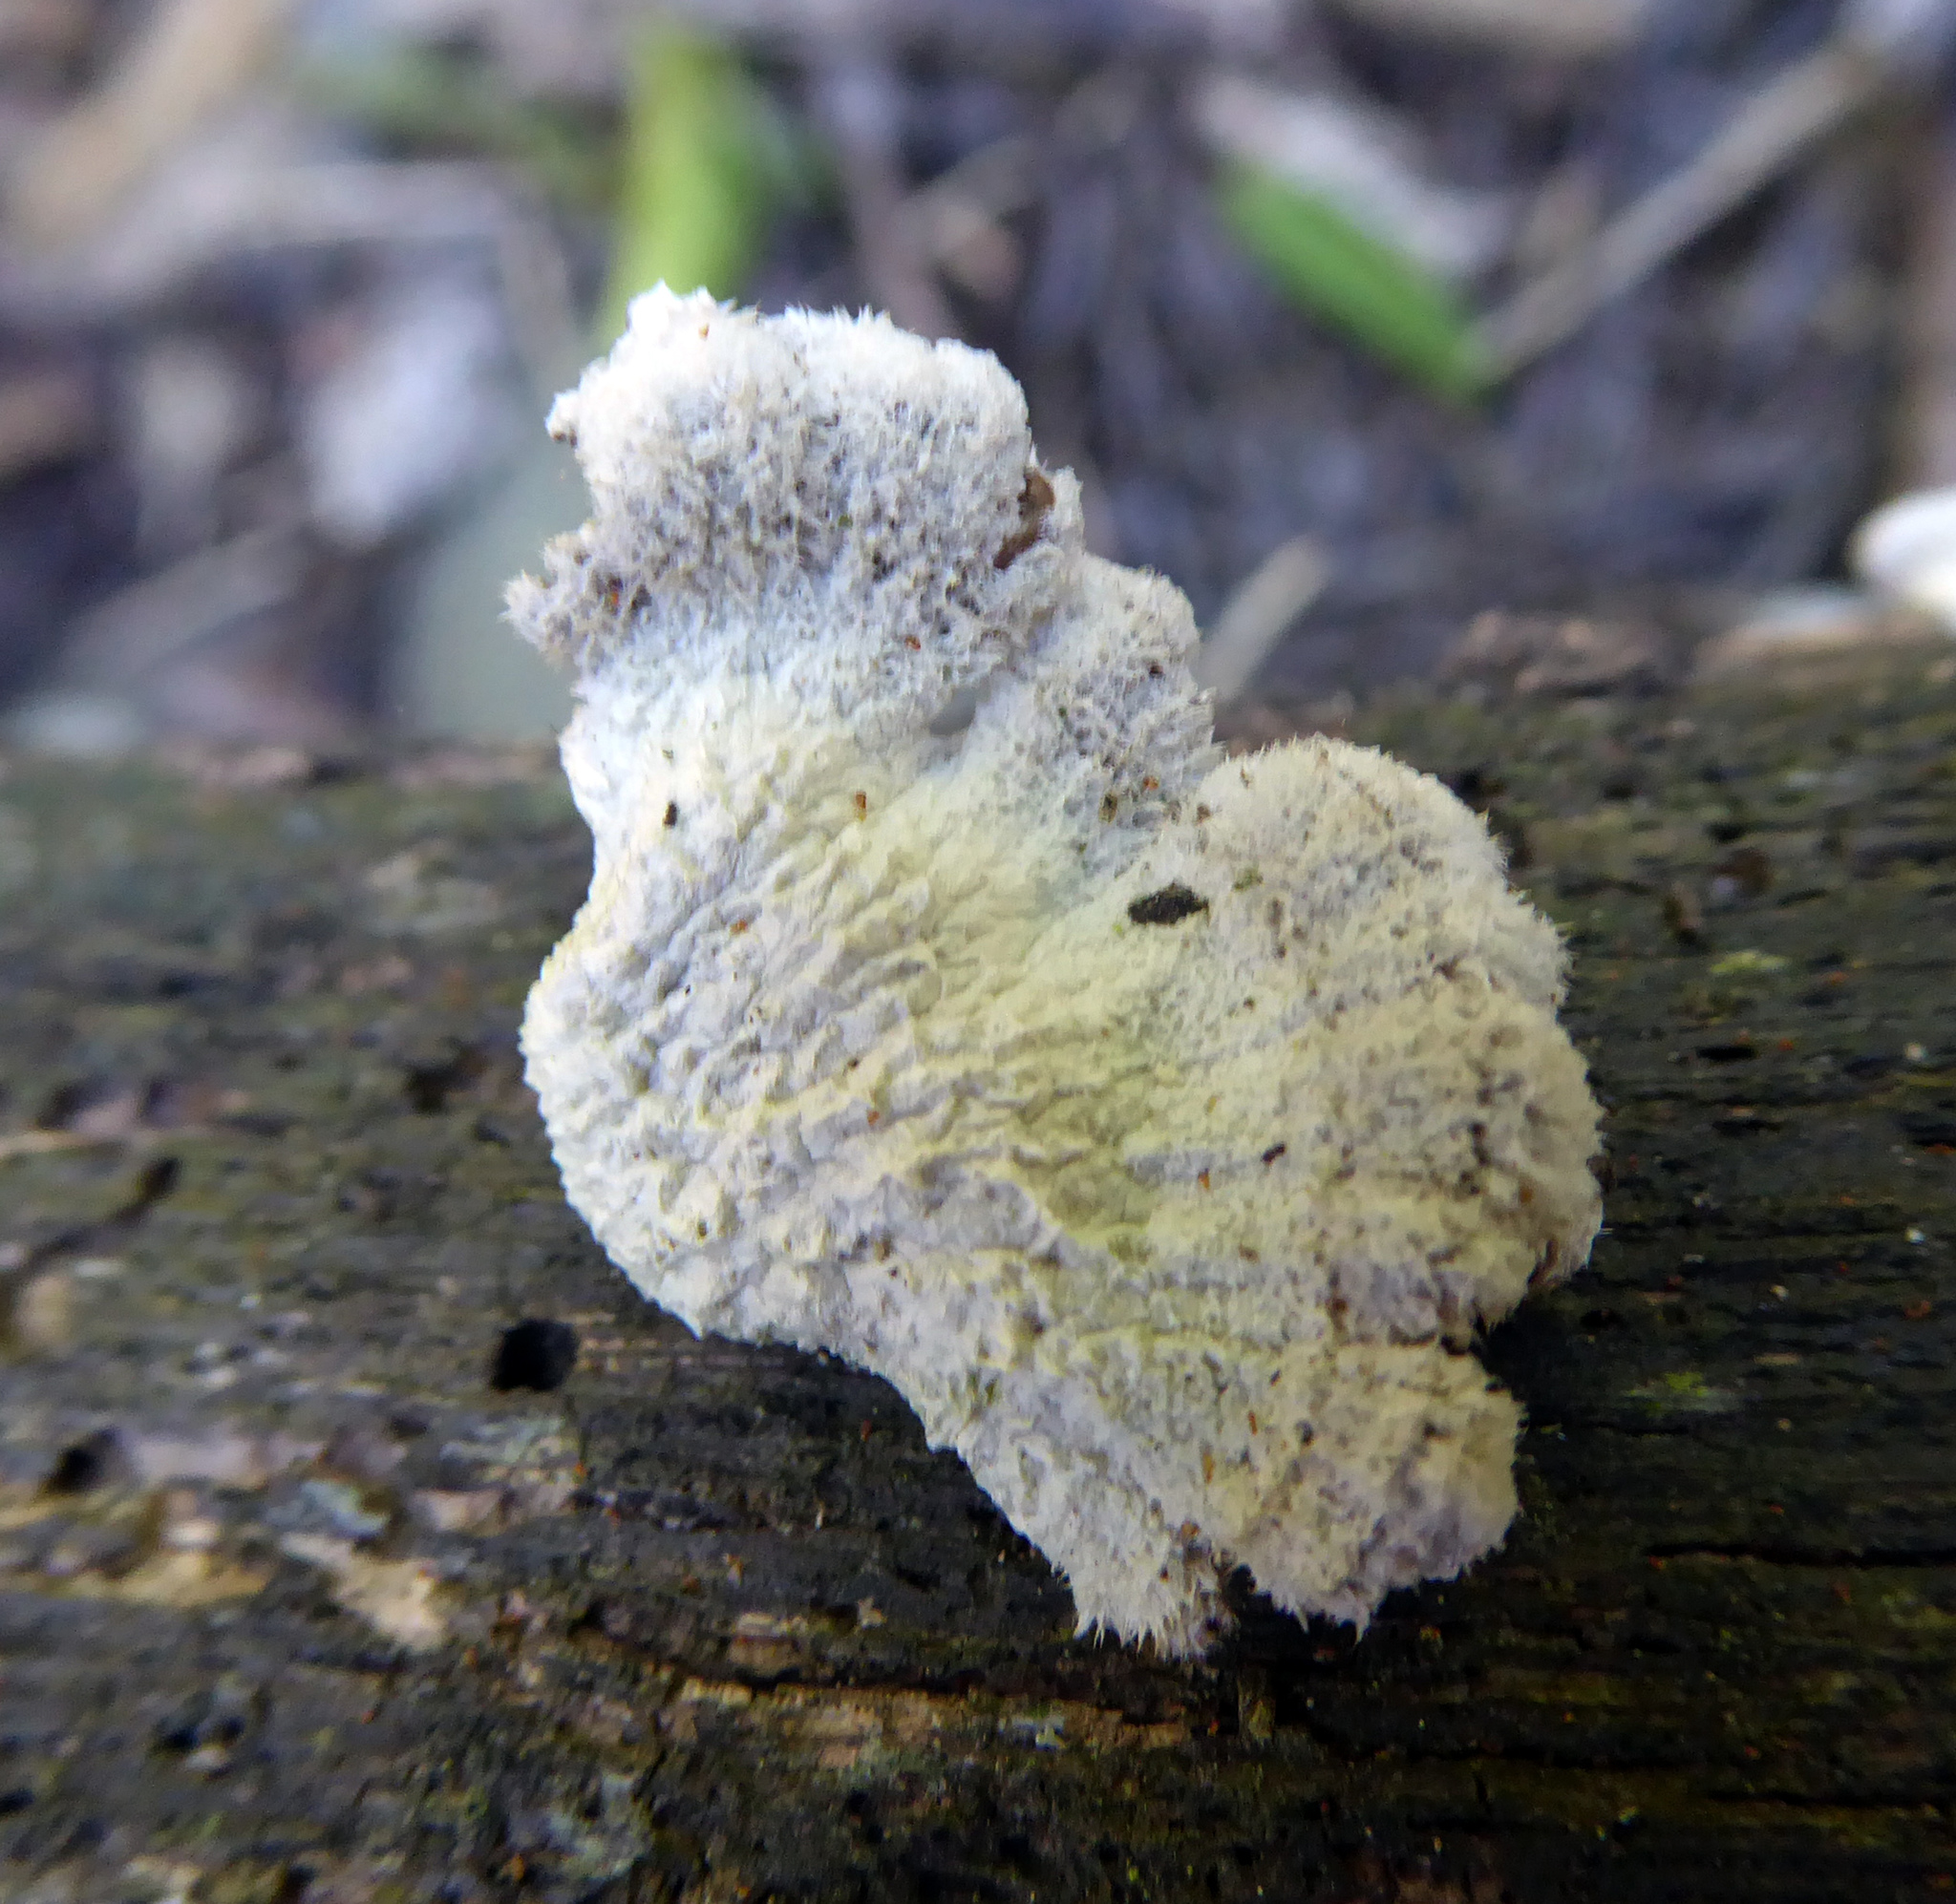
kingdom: Fungi
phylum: Basidiomycota
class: Agaricomycetes
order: Agaricales
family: Schizophyllaceae
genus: Schizophyllum
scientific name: Schizophyllum commune
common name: Common porecrust
